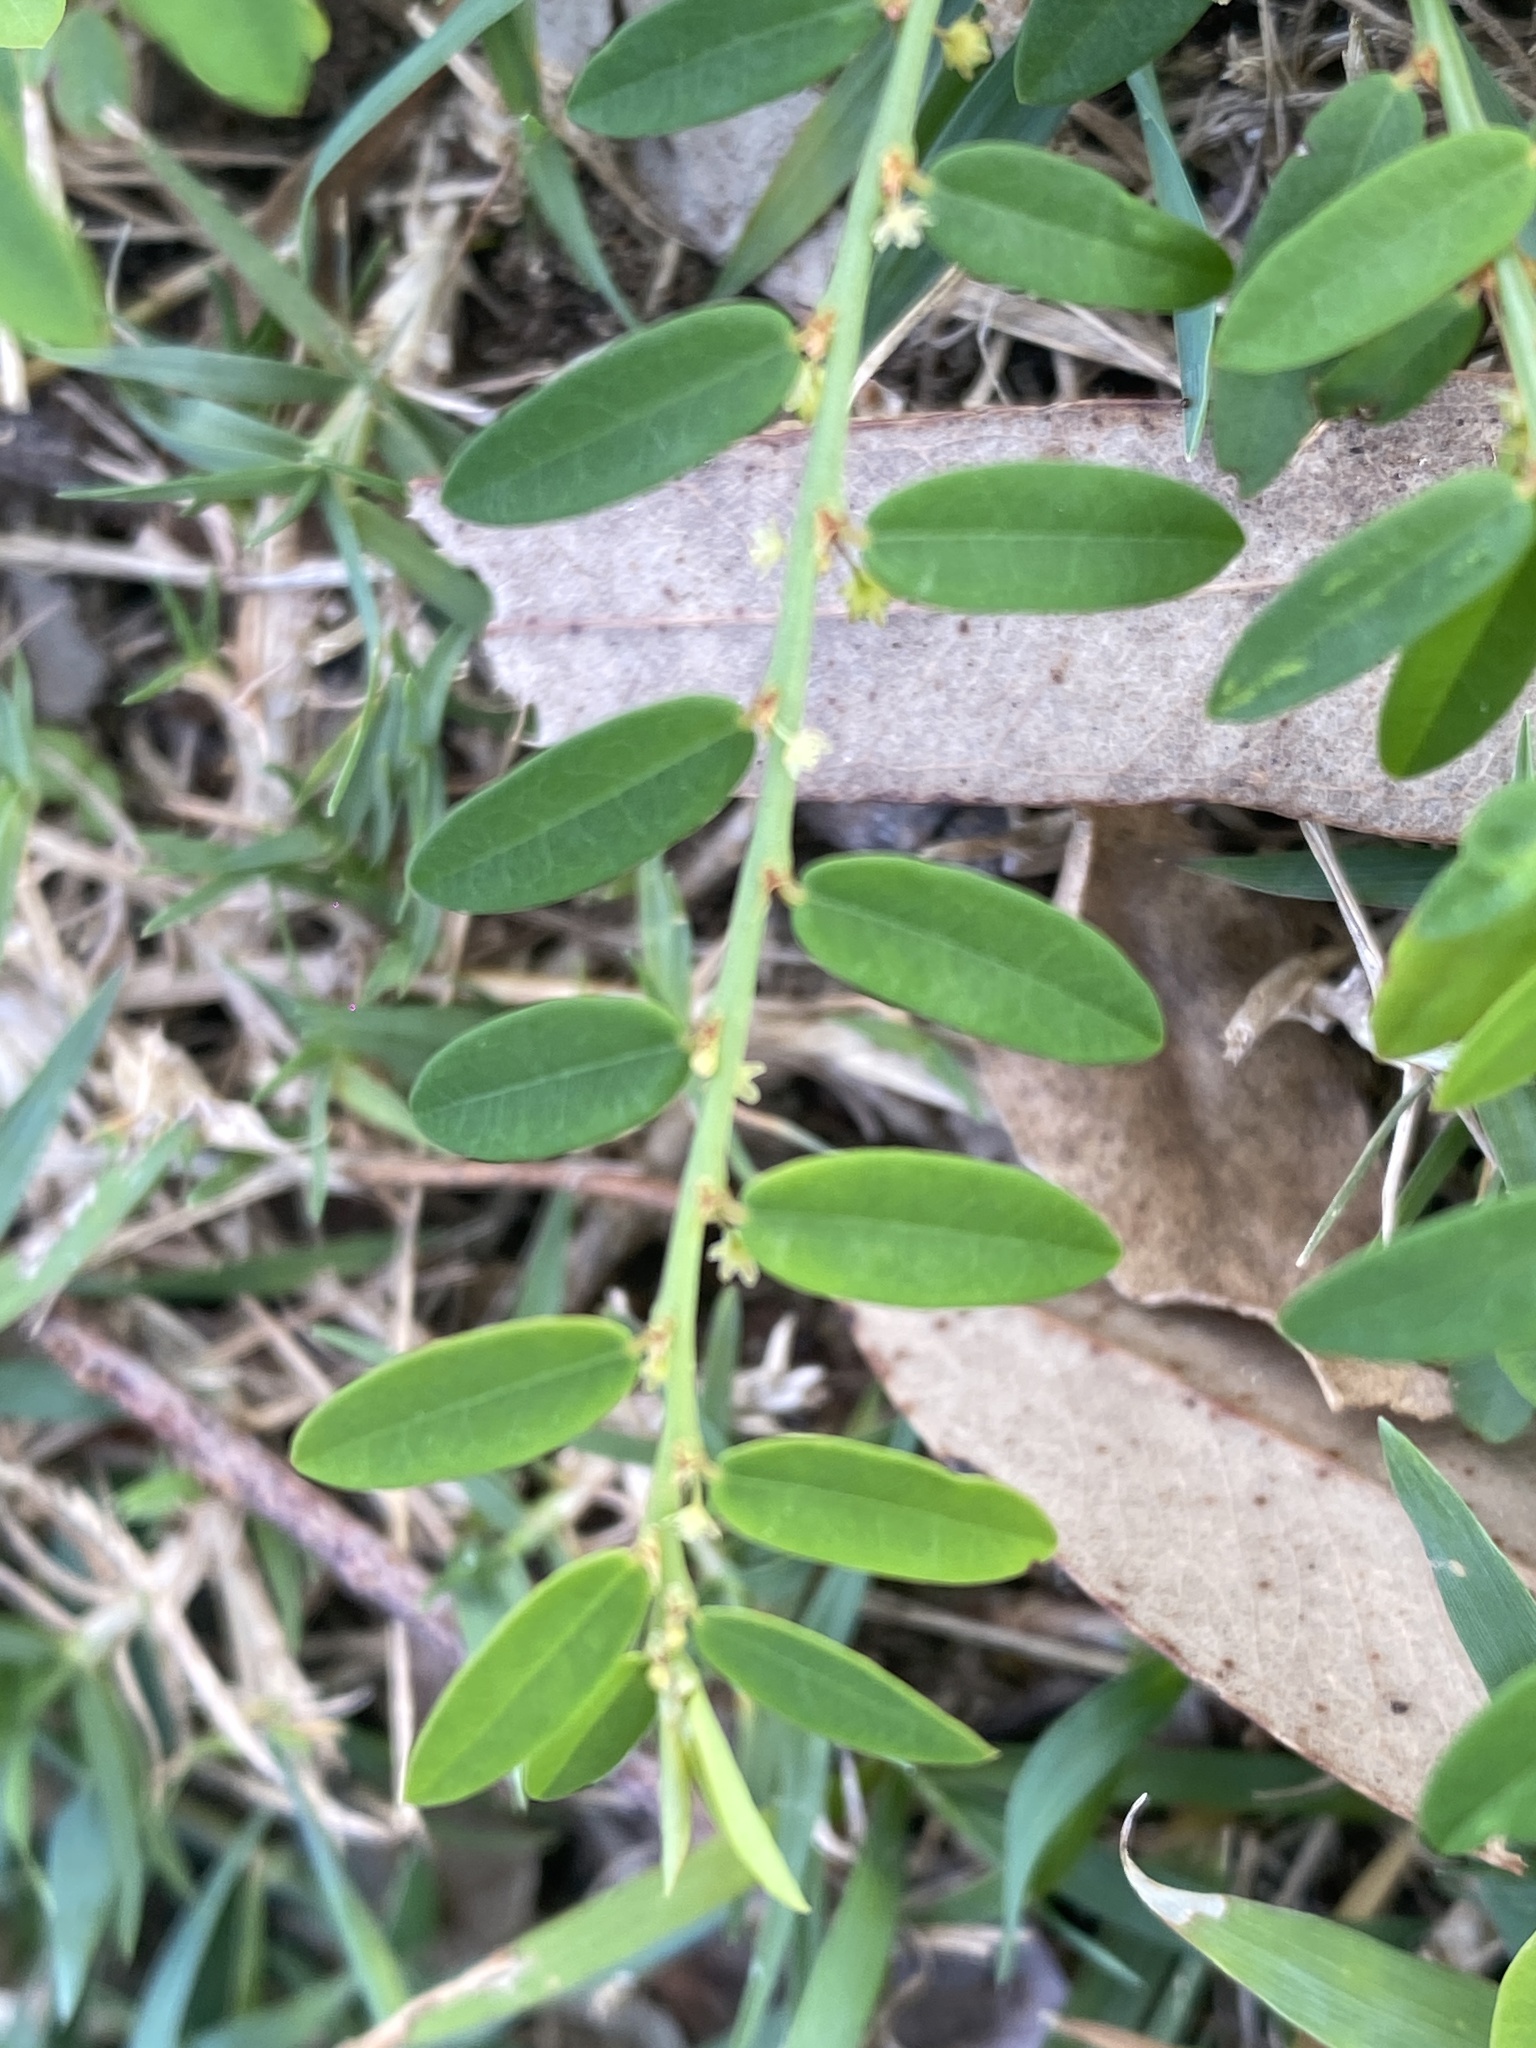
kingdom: Plantae
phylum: Tracheophyta
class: Magnoliopsida
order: Malpighiales
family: Phyllanthaceae
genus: Phyllanthus
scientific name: Phyllanthus virgatus
